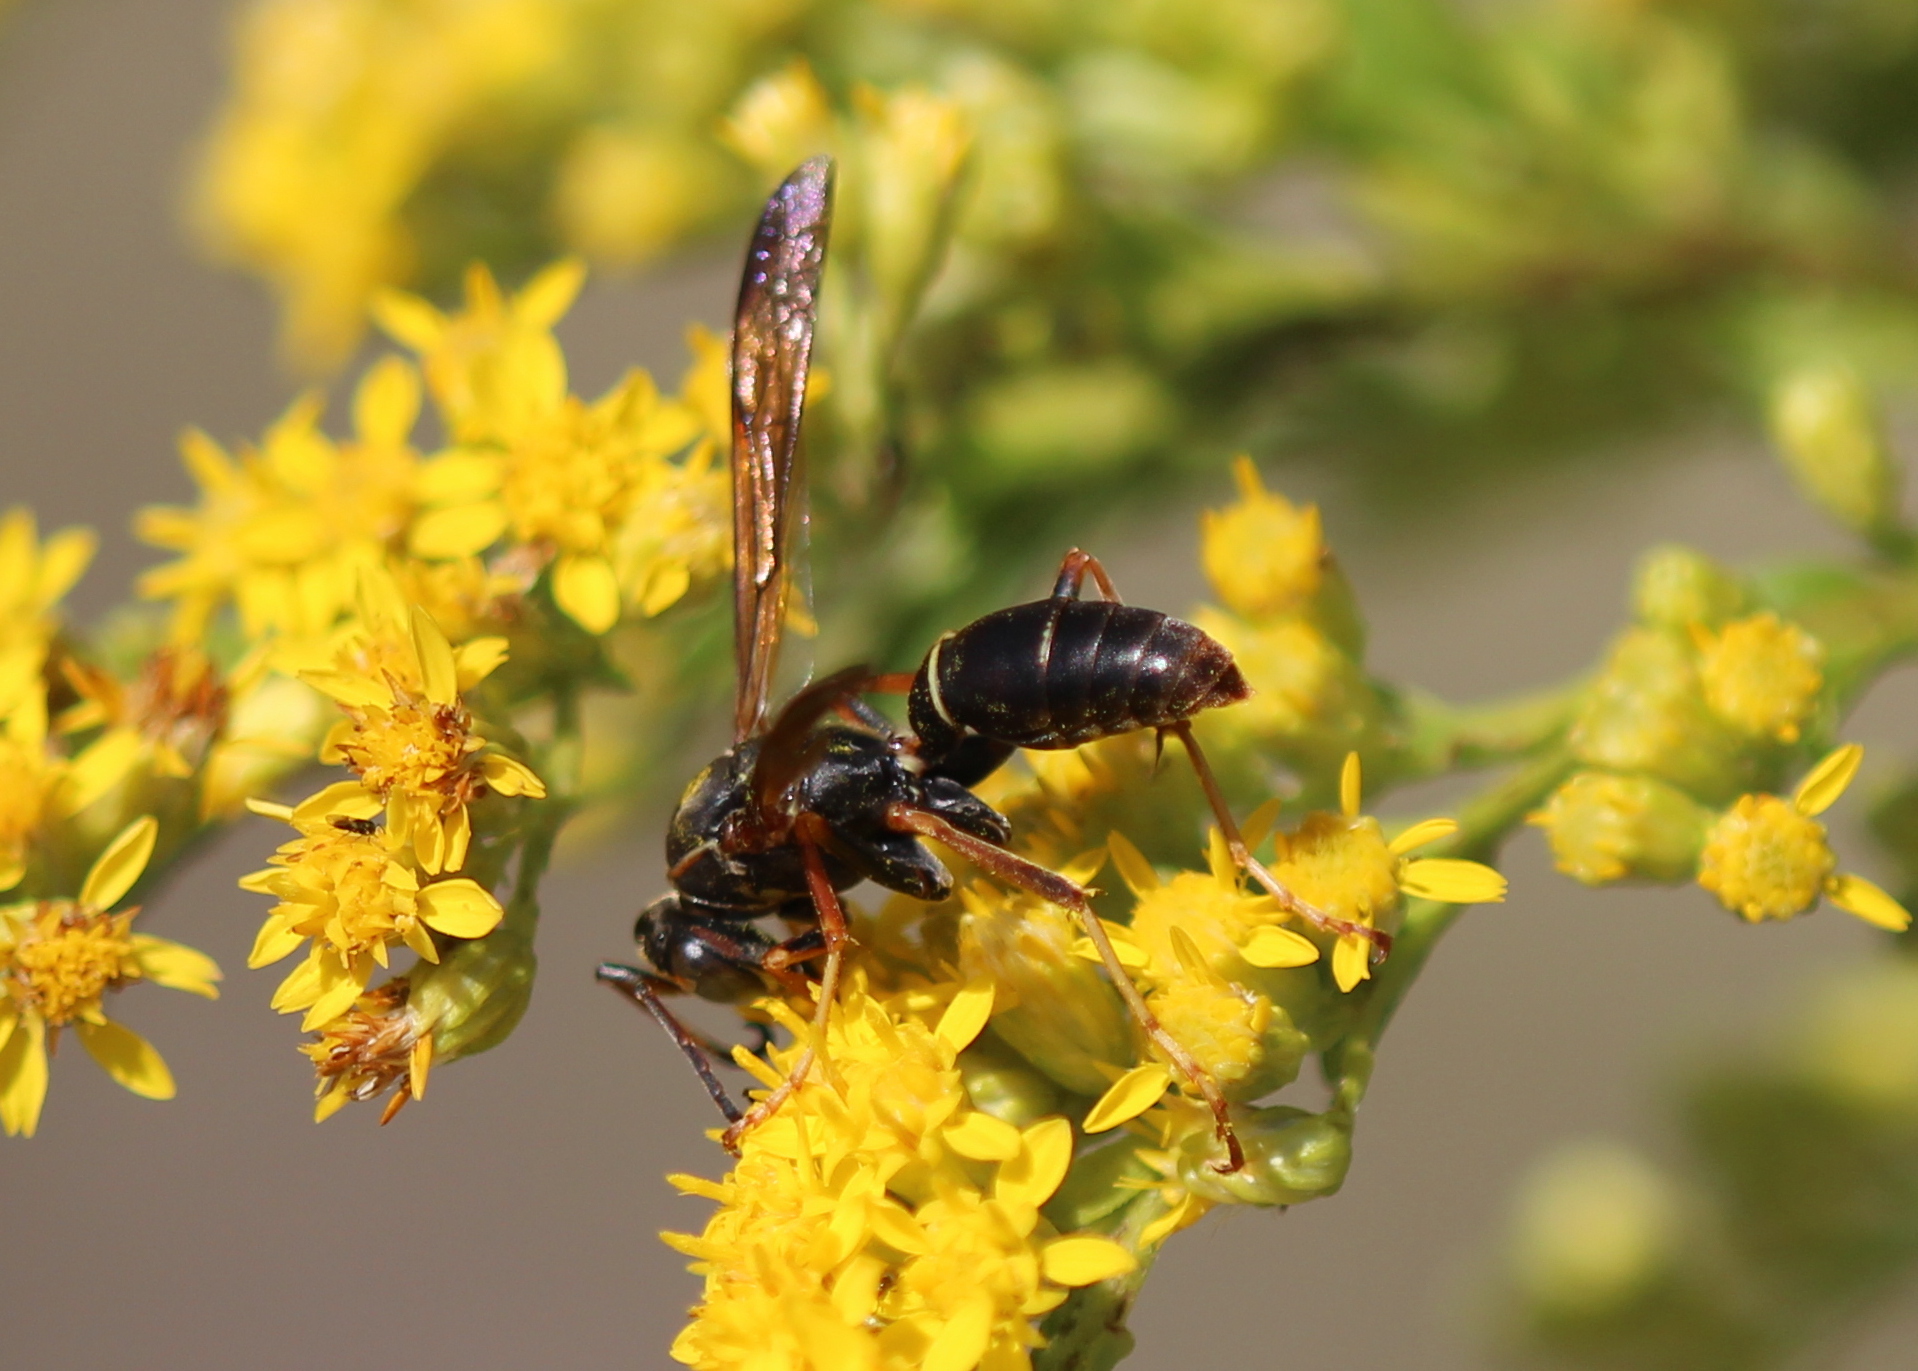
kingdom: Animalia
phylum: Arthropoda
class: Insecta
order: Hymenoptera
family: Eumenidae
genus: Polistes
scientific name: Polistes fuscatus
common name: Dark paper wasp
